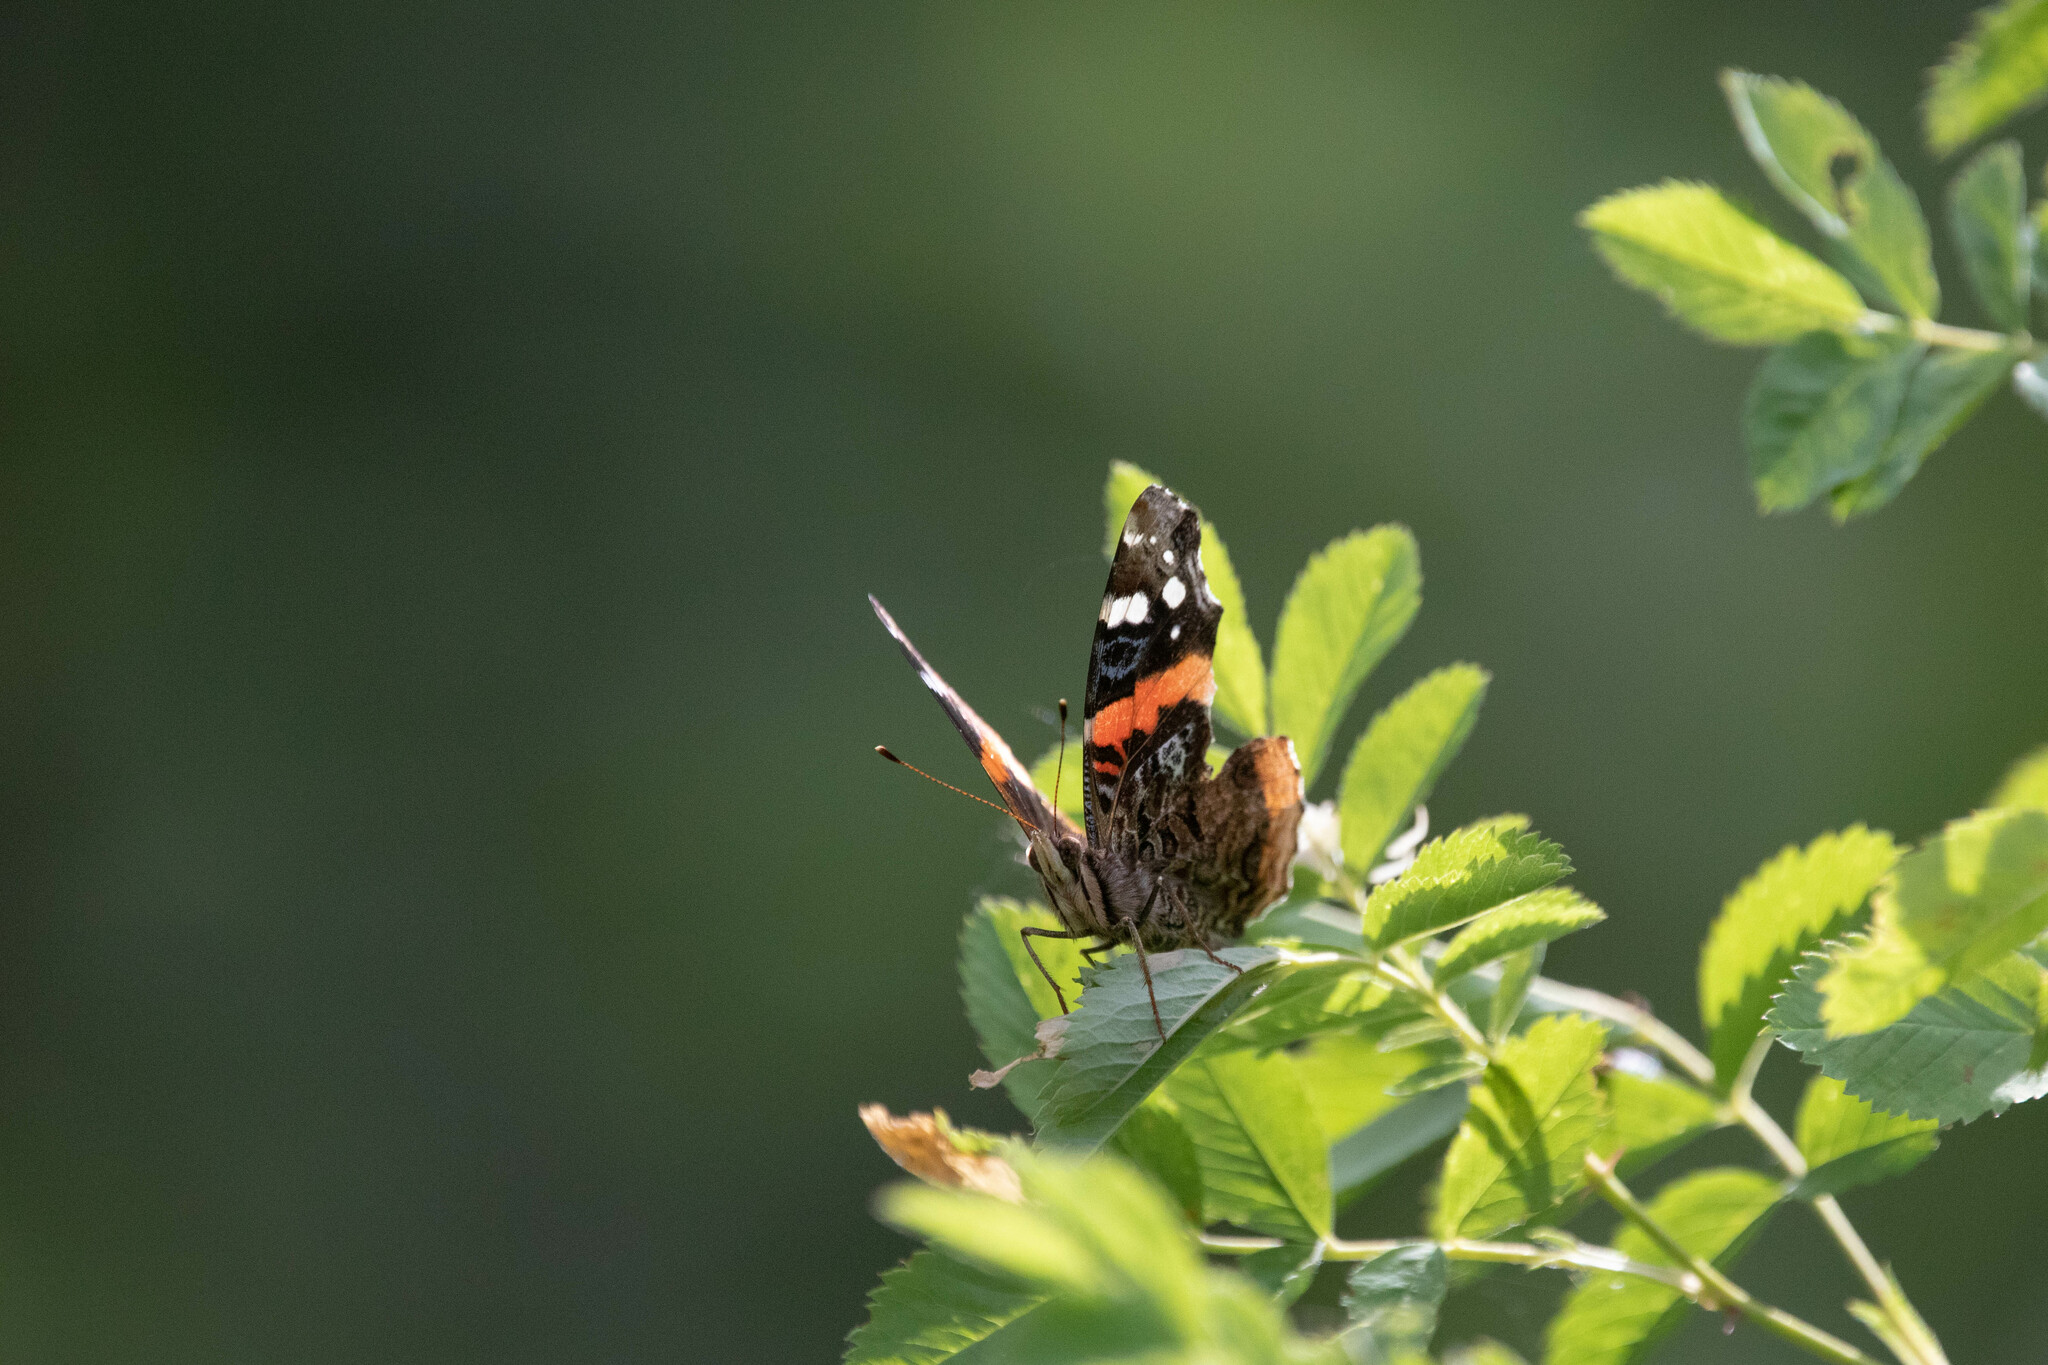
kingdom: Animalia
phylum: Arthropoda
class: Insecta
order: Lepidoptera
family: Nymphalidae
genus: Vanessa
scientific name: Vanessa atalanta
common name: Red admiral
